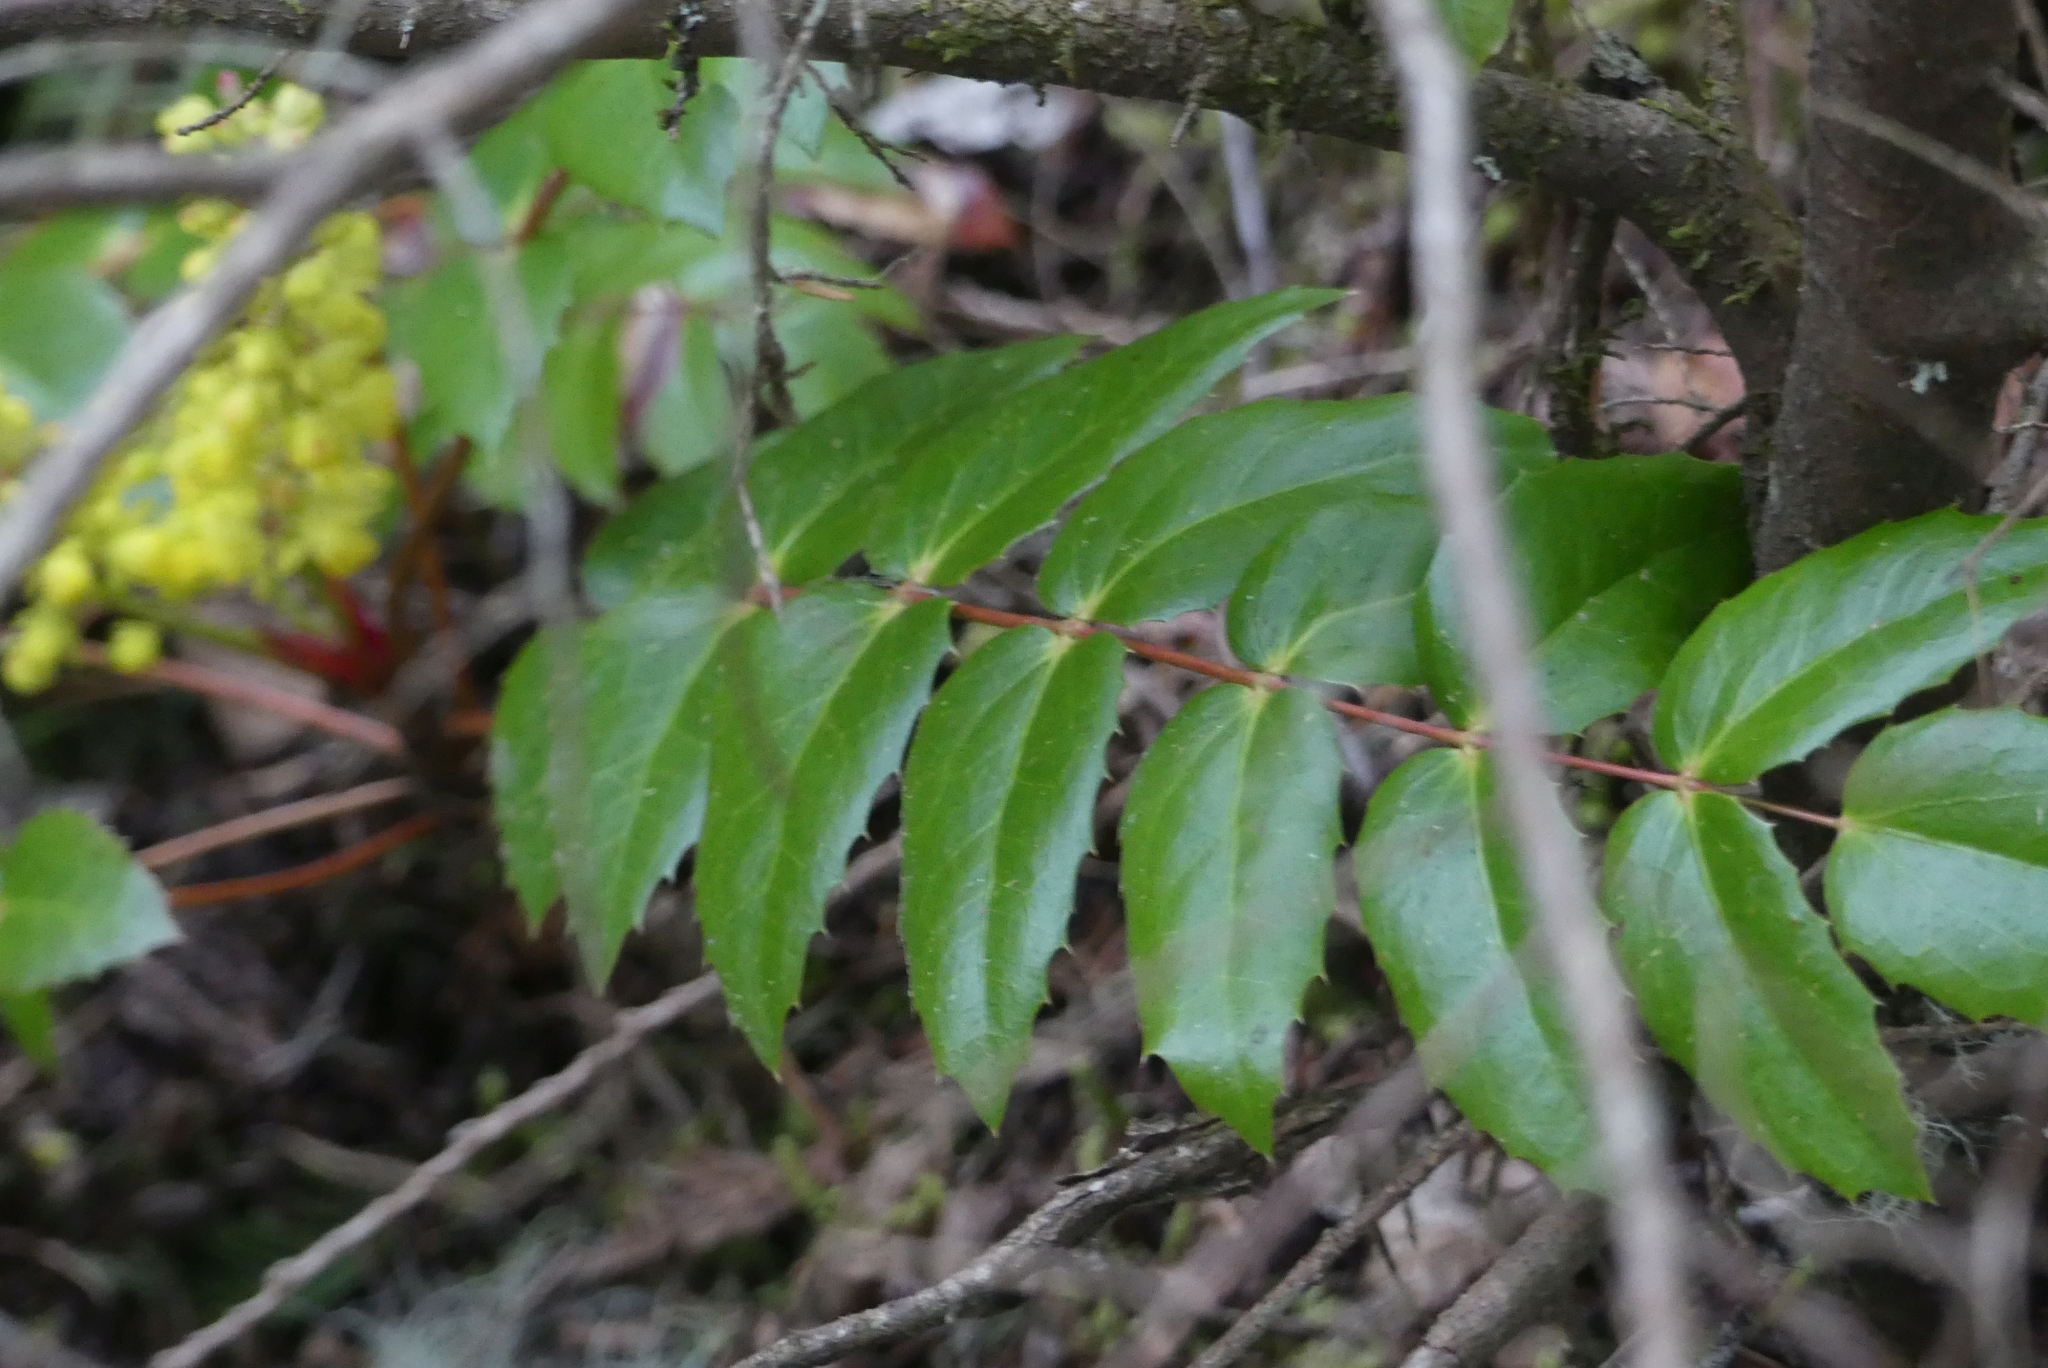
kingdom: Plantae
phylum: Tracheophyta
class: Magnoliopsida
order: Ranunculales
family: Berberidaceae
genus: Mahonia
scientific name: Mahonia nervosa
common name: Cascade oregon-grape
